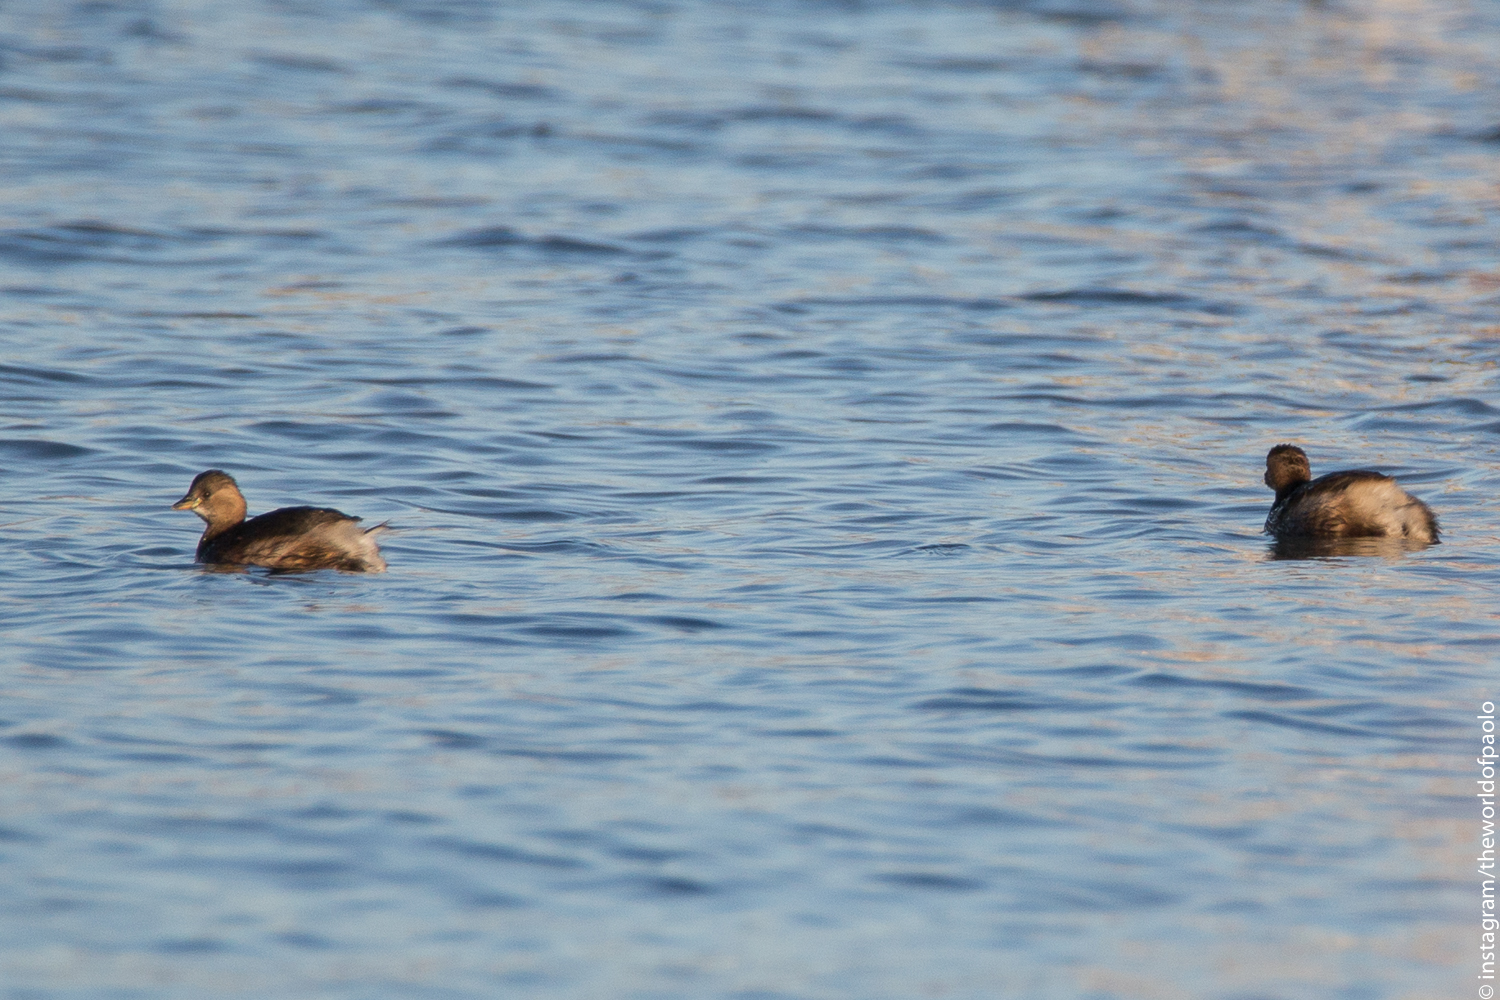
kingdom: Animalia
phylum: Chordata
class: Aves
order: Podicipediformes
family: Podicipedidae
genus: Tachybaptus
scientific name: Tachybaptus ruficollis
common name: Little grebe
